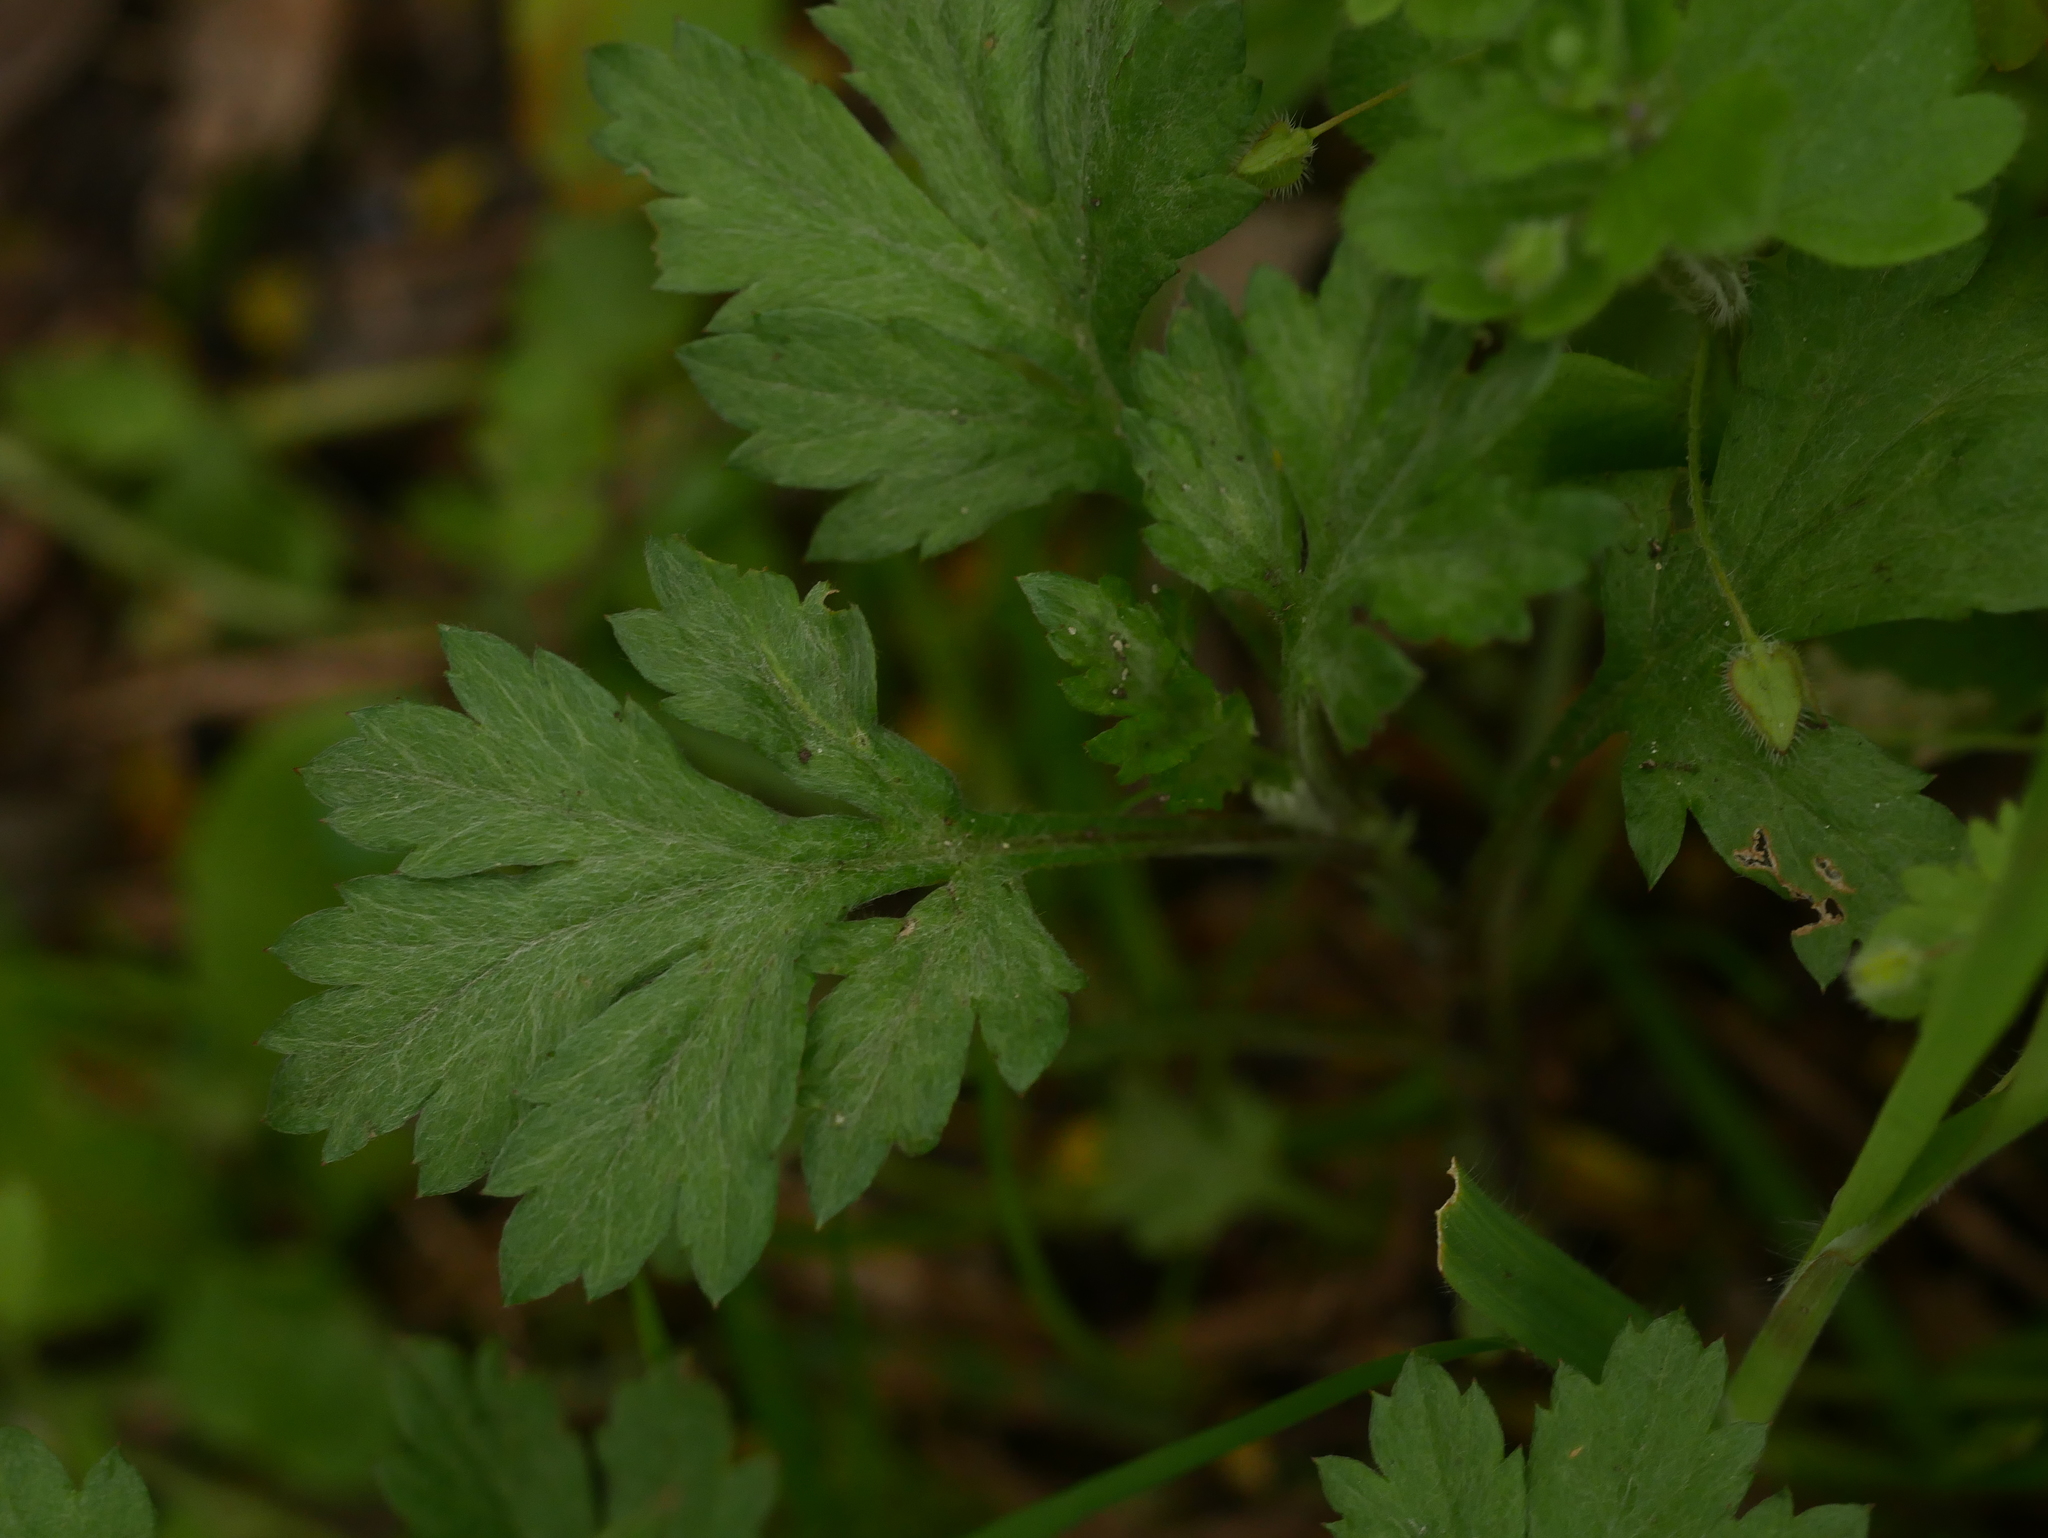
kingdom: Plantae
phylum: Tracheophyta
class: Magnoliopsida
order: Asterales
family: Asteraceae
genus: Artemisia
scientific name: Artemisia vulgaris
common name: Mugwort
